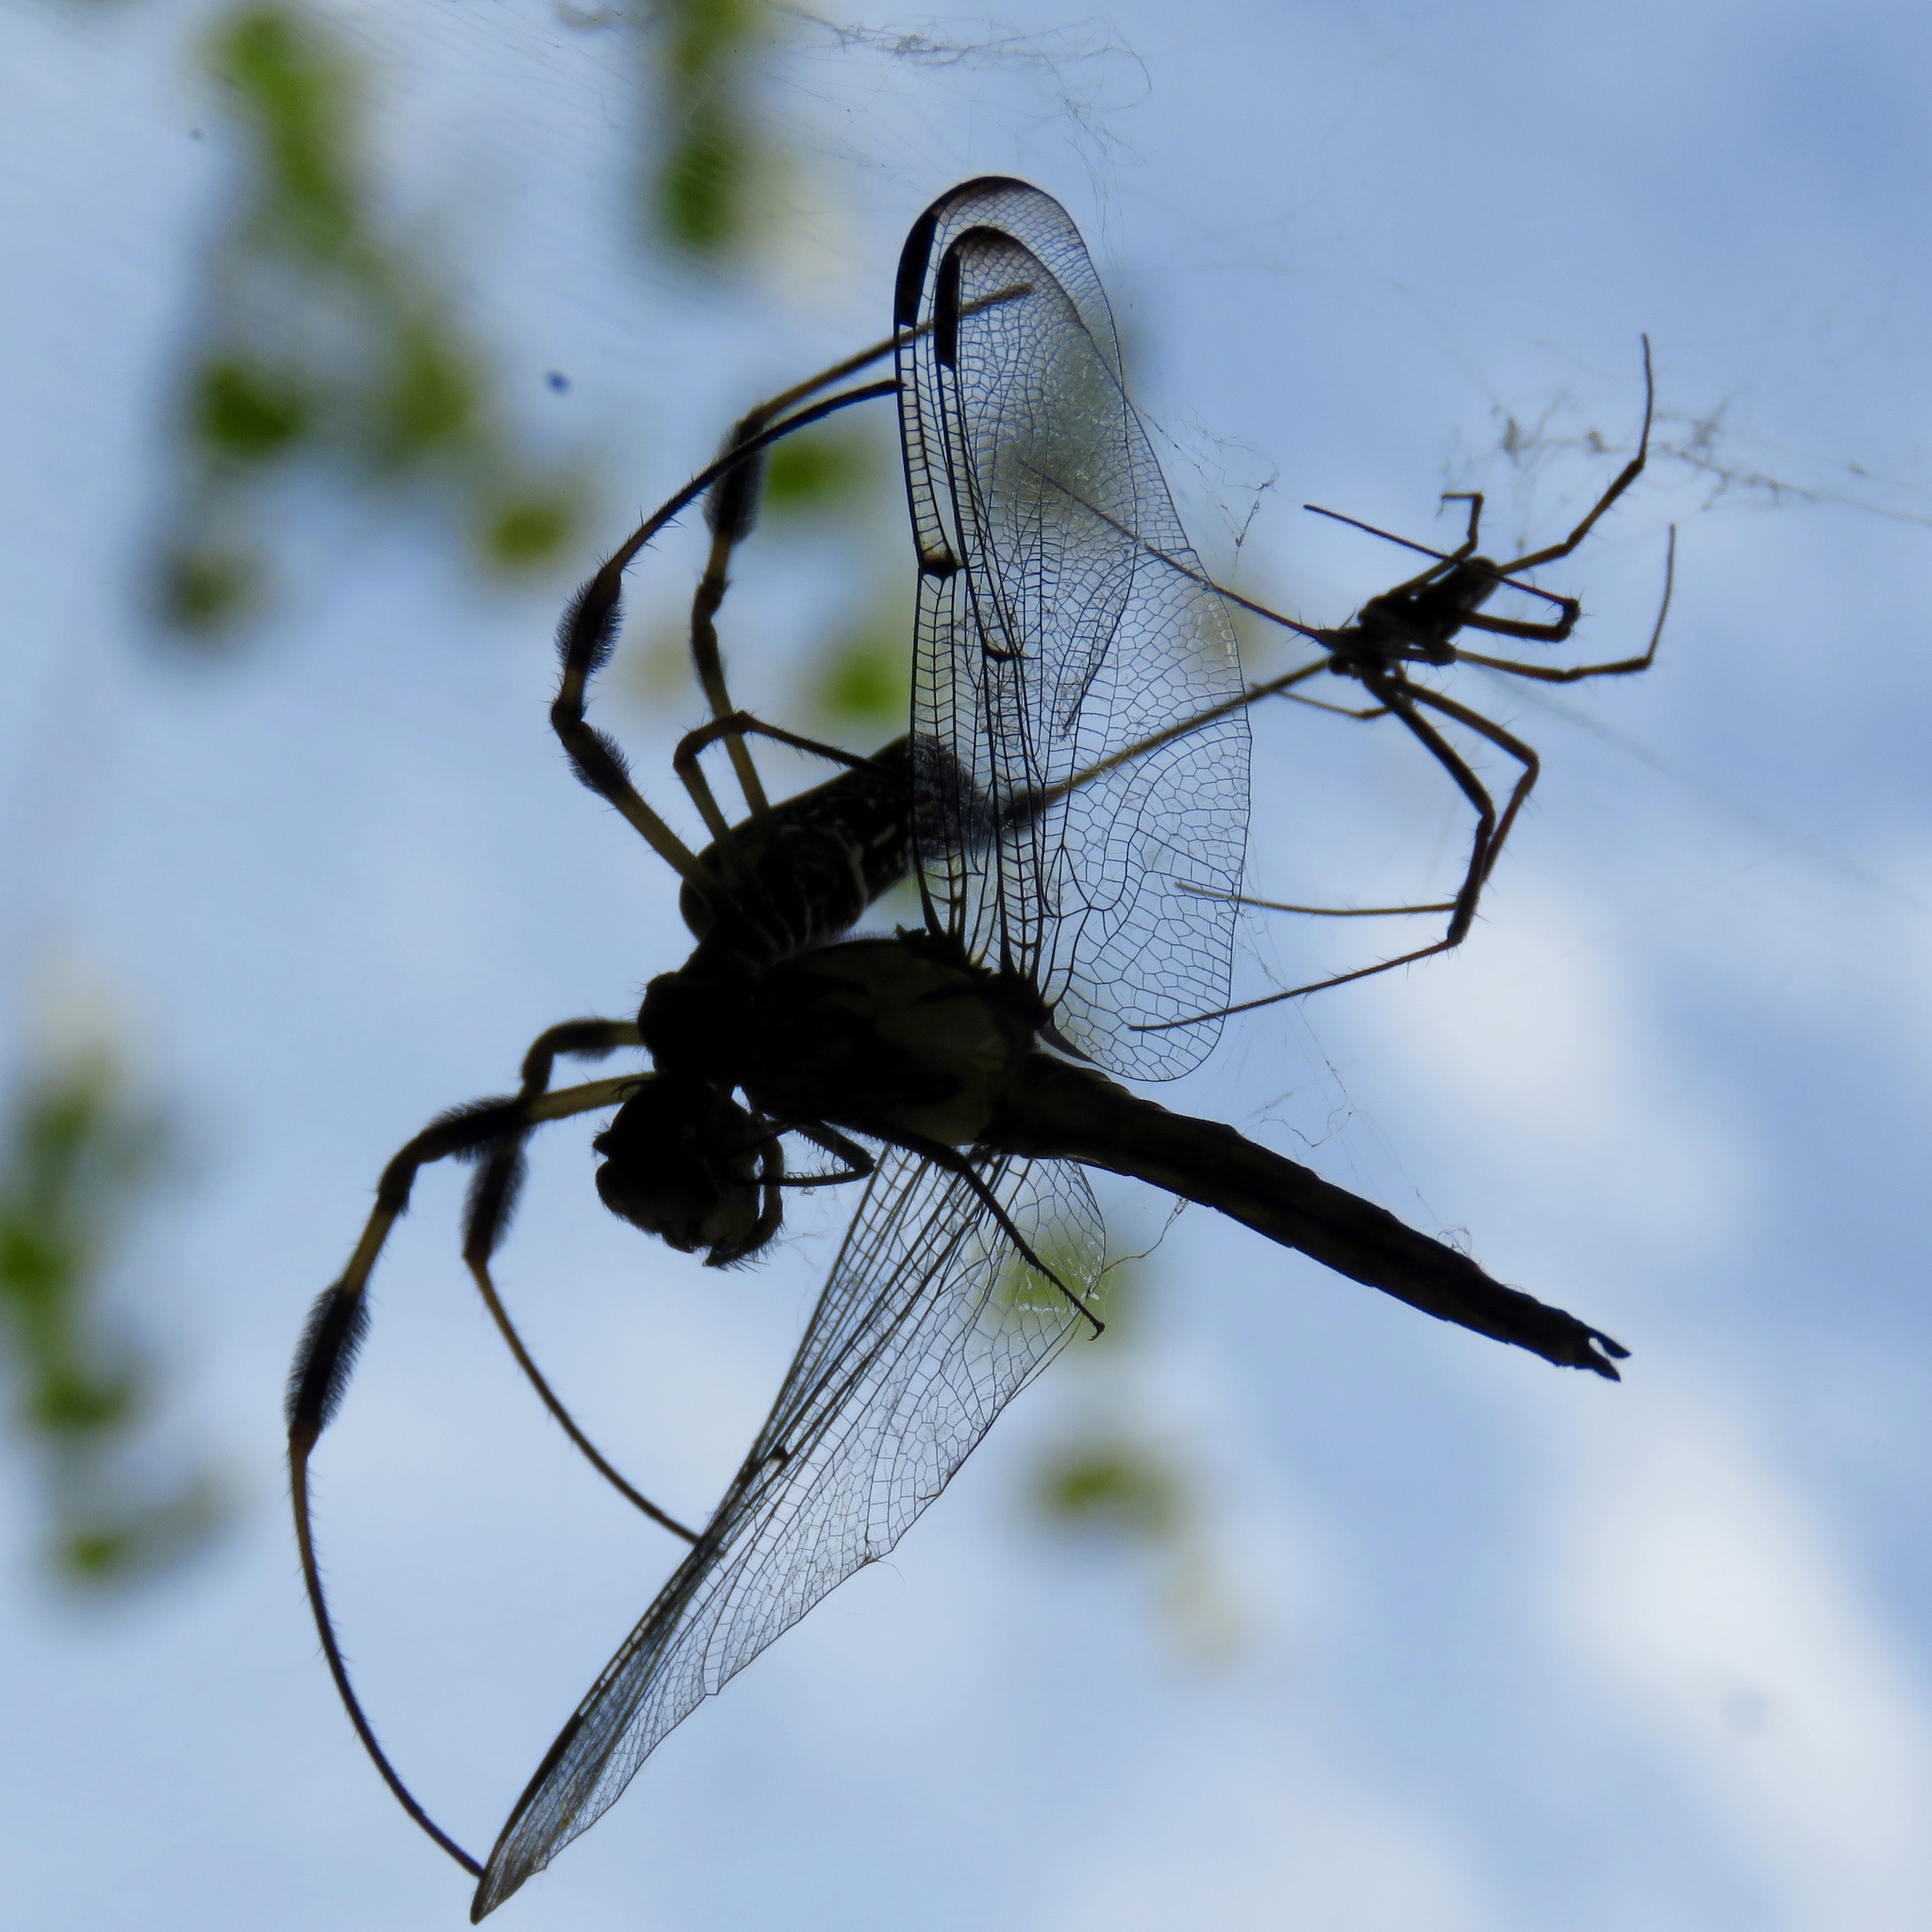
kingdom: Animalia
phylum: Arthropoda
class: Arachnida
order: Araneae
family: Araneidae
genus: Trichonephila
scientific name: Trichonephila clavipes
